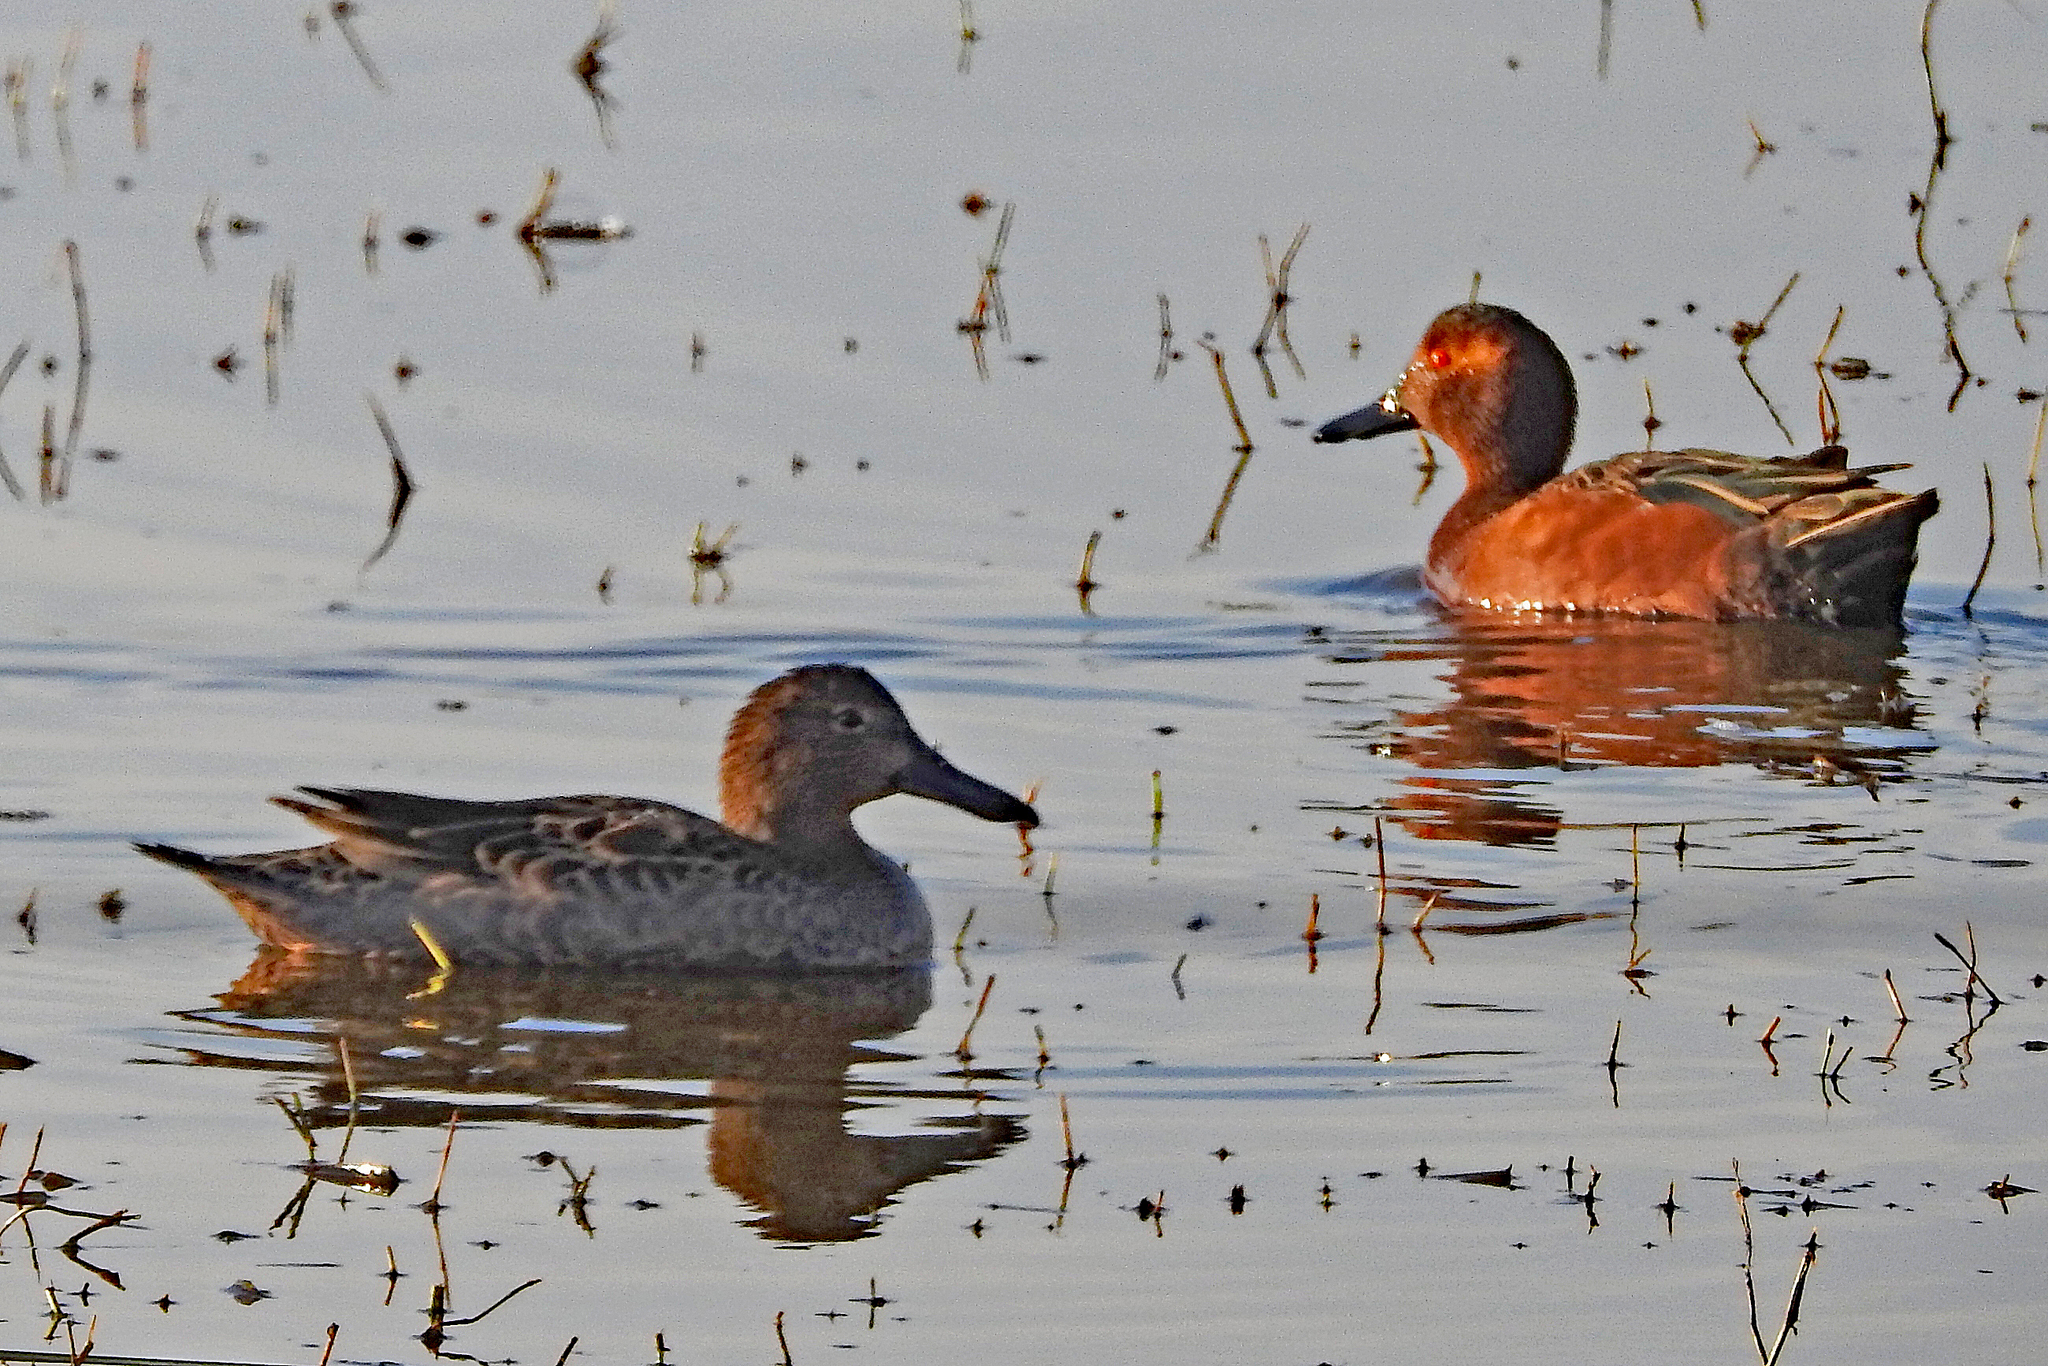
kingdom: Animalia
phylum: Chordata
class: Aves
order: Anseriformes
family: Anatidae
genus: Spatula
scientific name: Spatula cyanoptera
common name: Cinnamon teal
